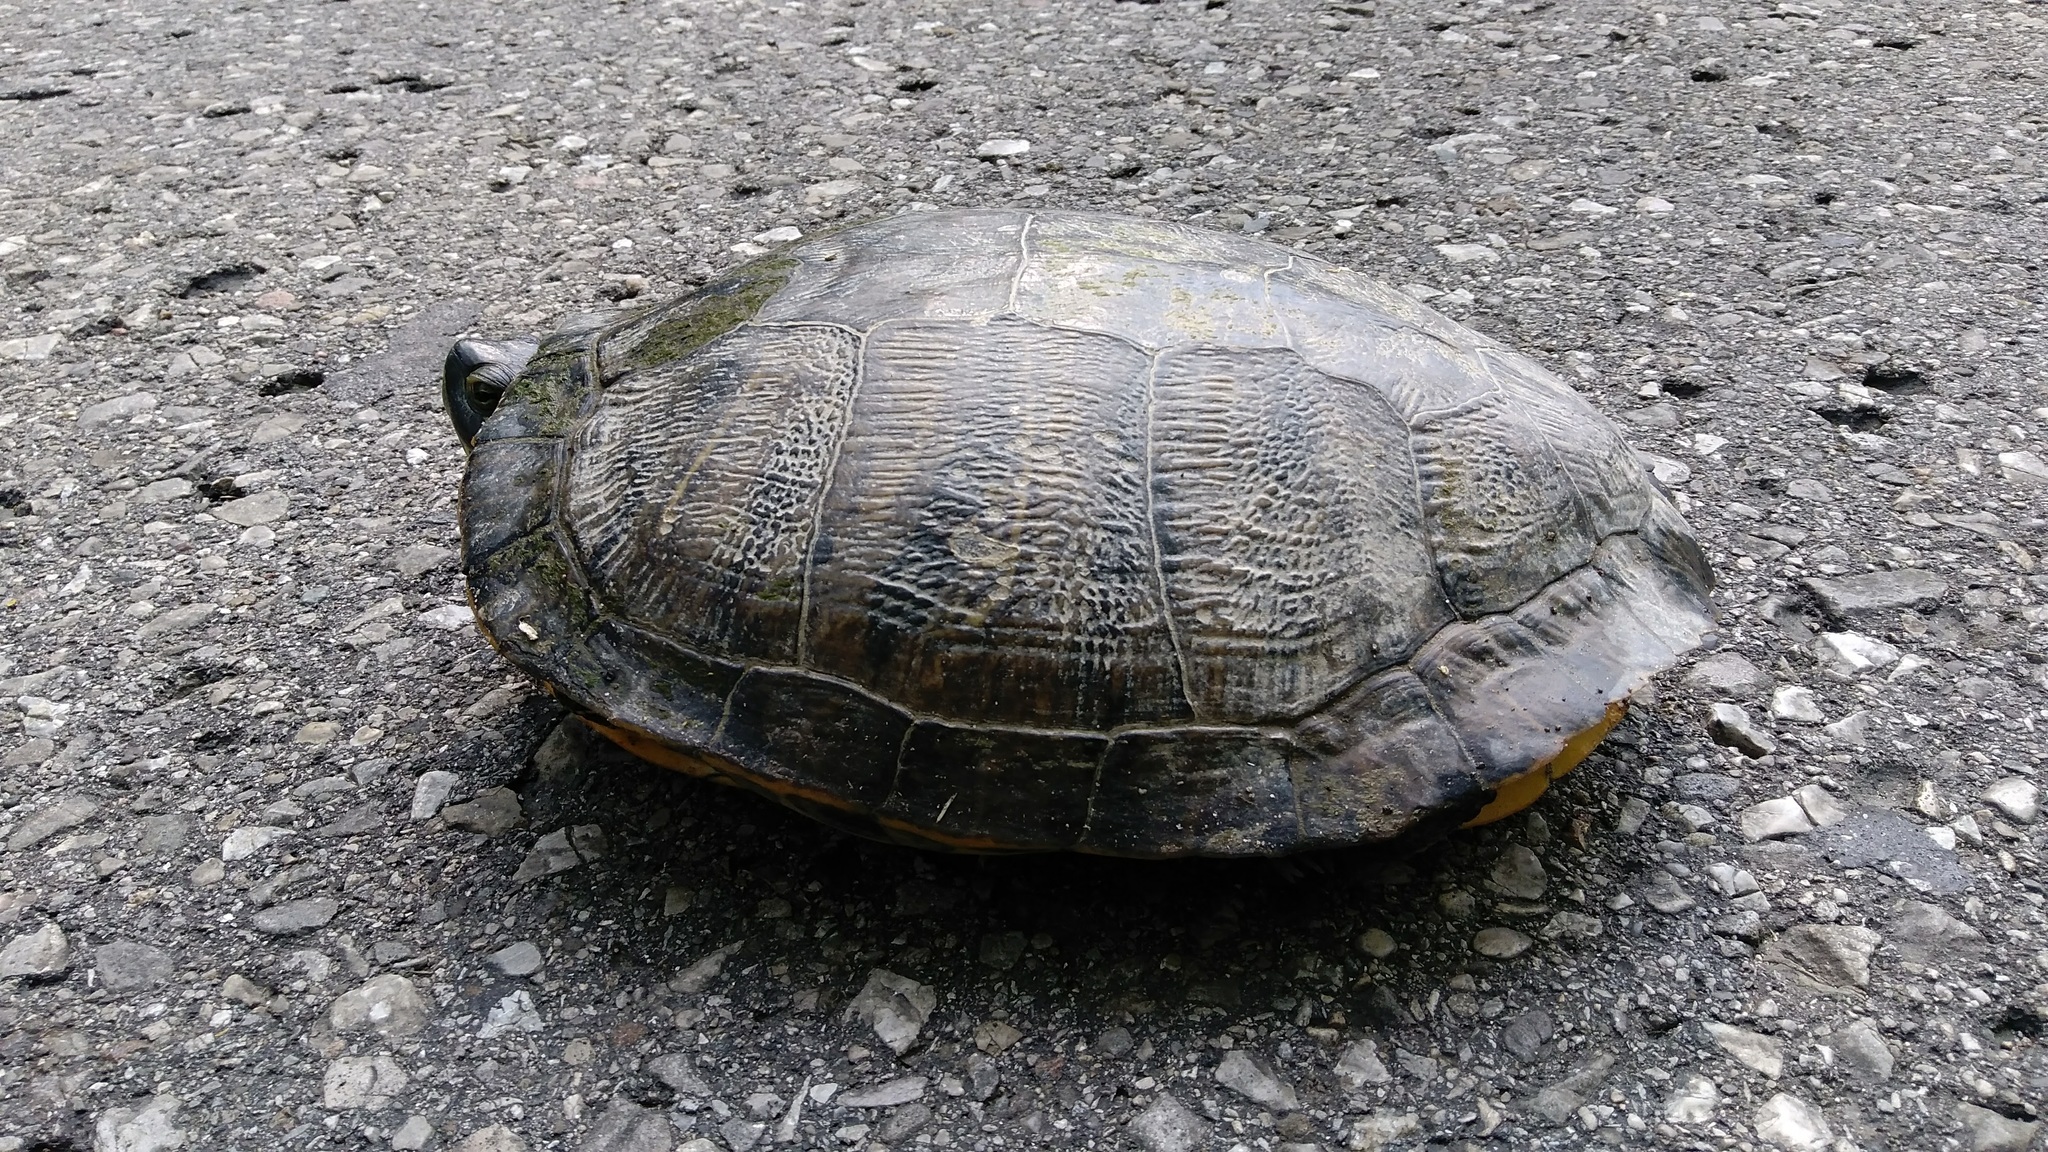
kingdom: Animalia
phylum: Chordata
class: Testudines
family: Emydidae
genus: Trachemys
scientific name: Trachemys scripta
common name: Slider
